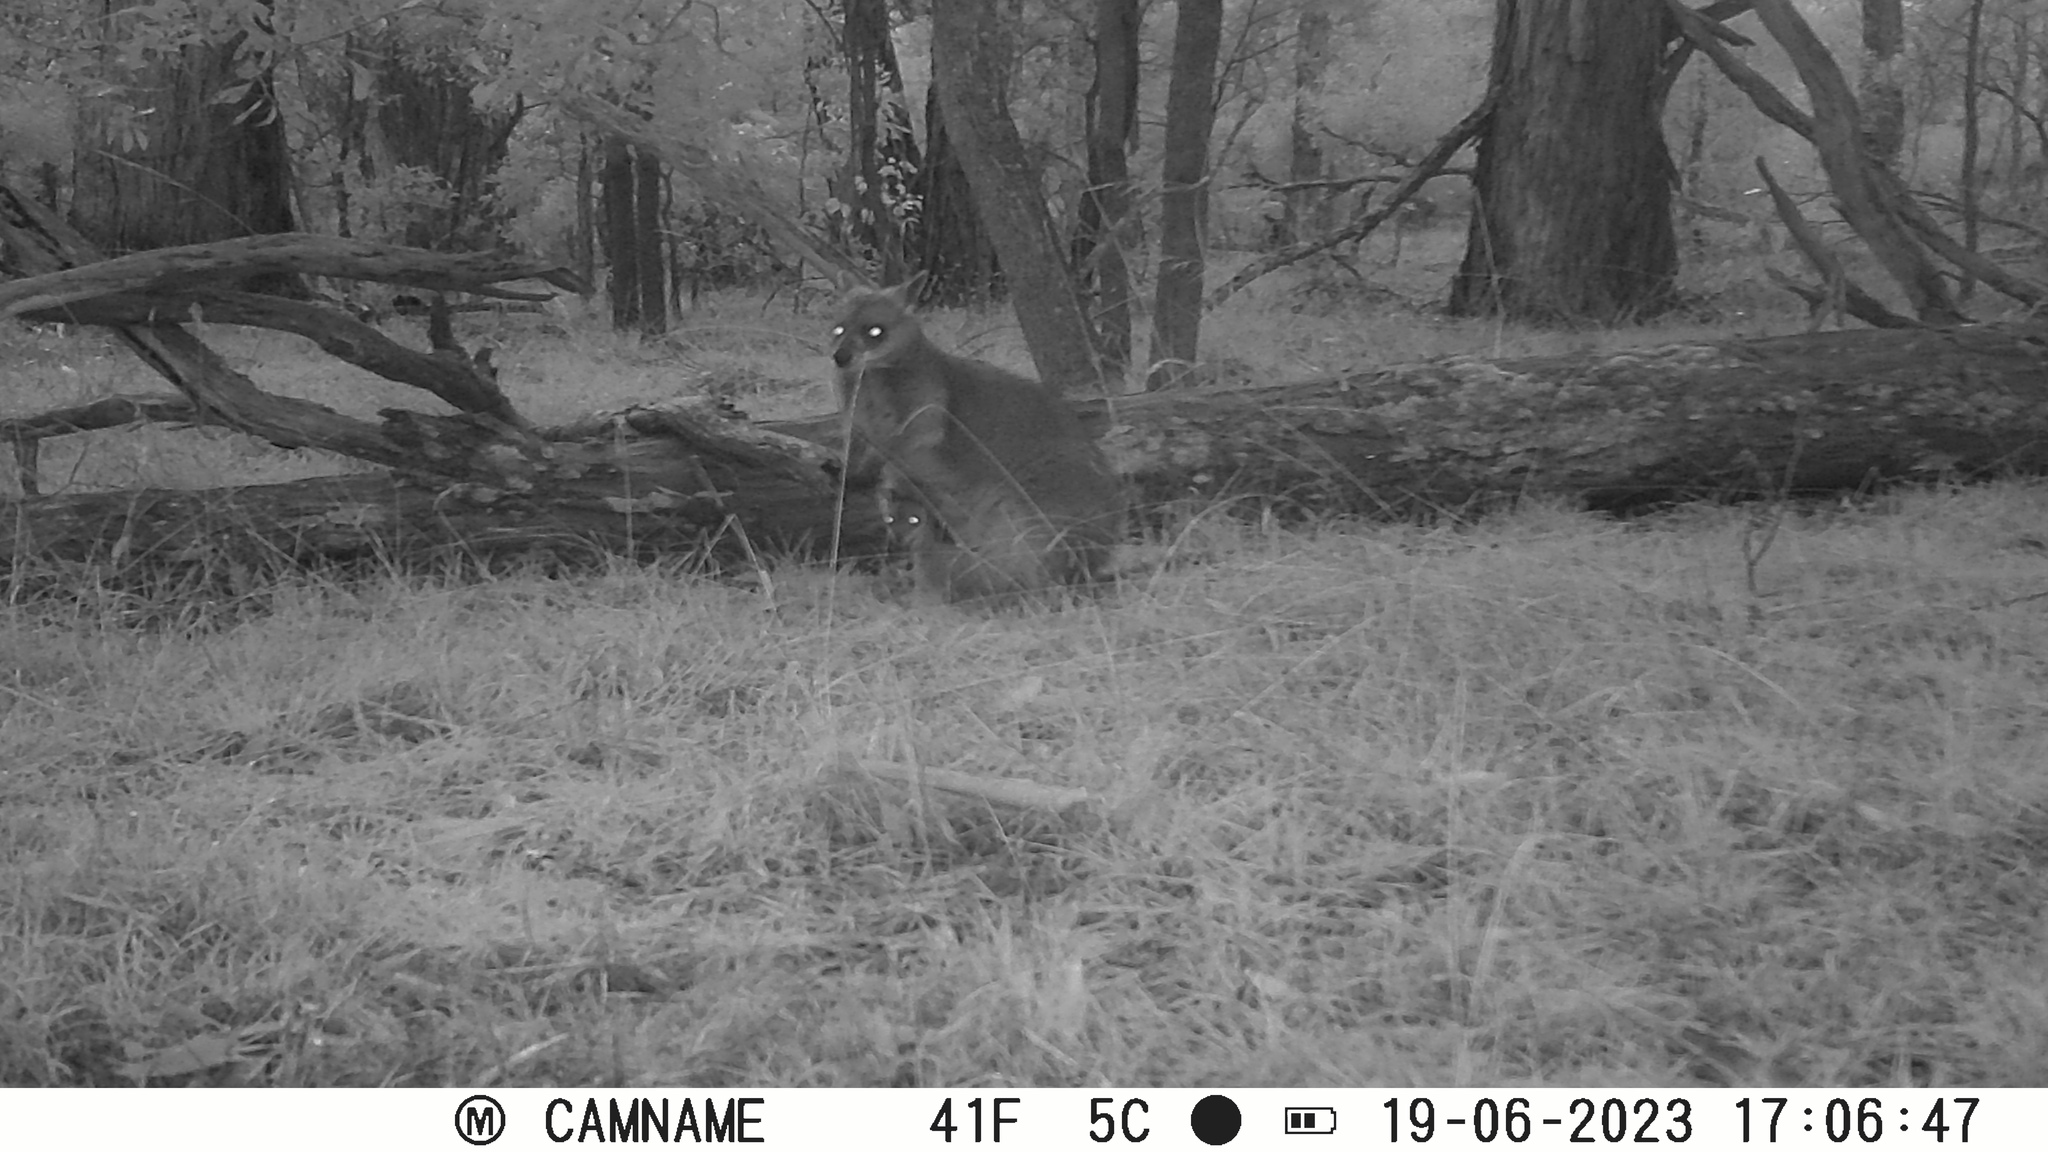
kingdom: Animalia
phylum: Chordata
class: Mammalia
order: Diprotodontia
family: Macropodidae
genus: Wallabia
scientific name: Wallabia bicolor
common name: Swamp wallaby
